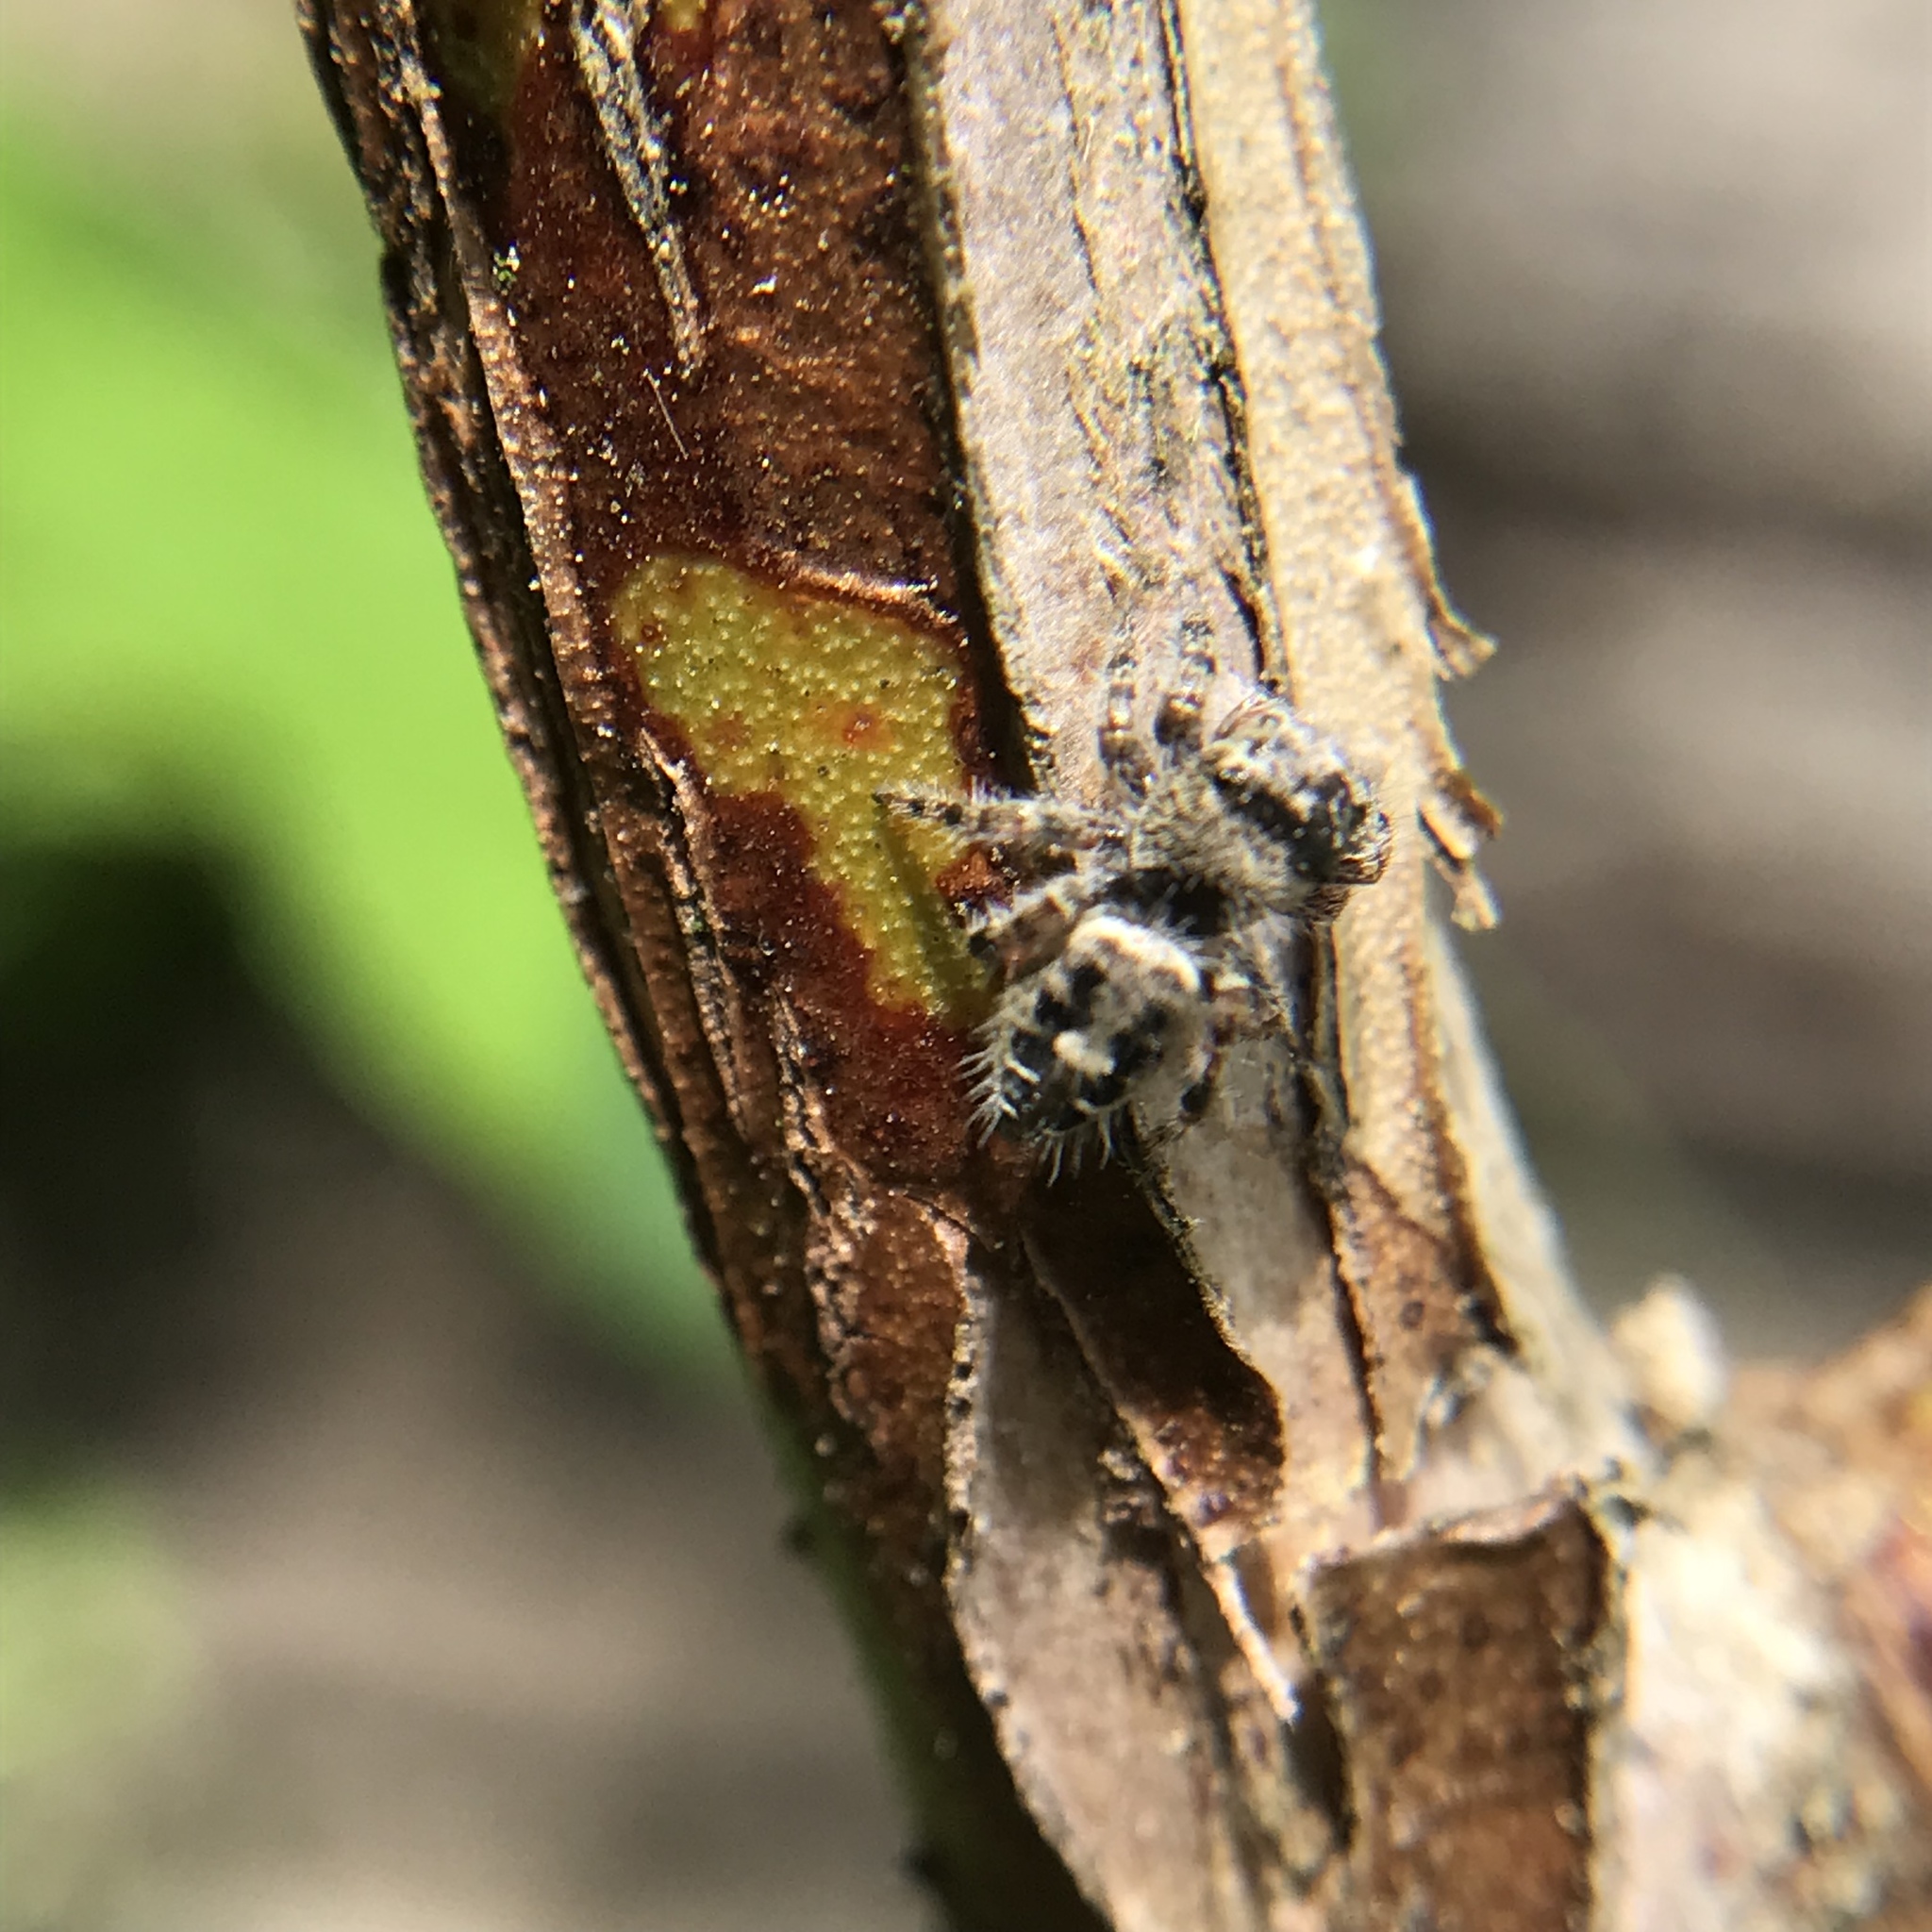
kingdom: Animalia
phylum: Arthropoda
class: Arachnida
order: Araneae
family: Salticidae
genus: Phidippus
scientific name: Phidippus putnami
